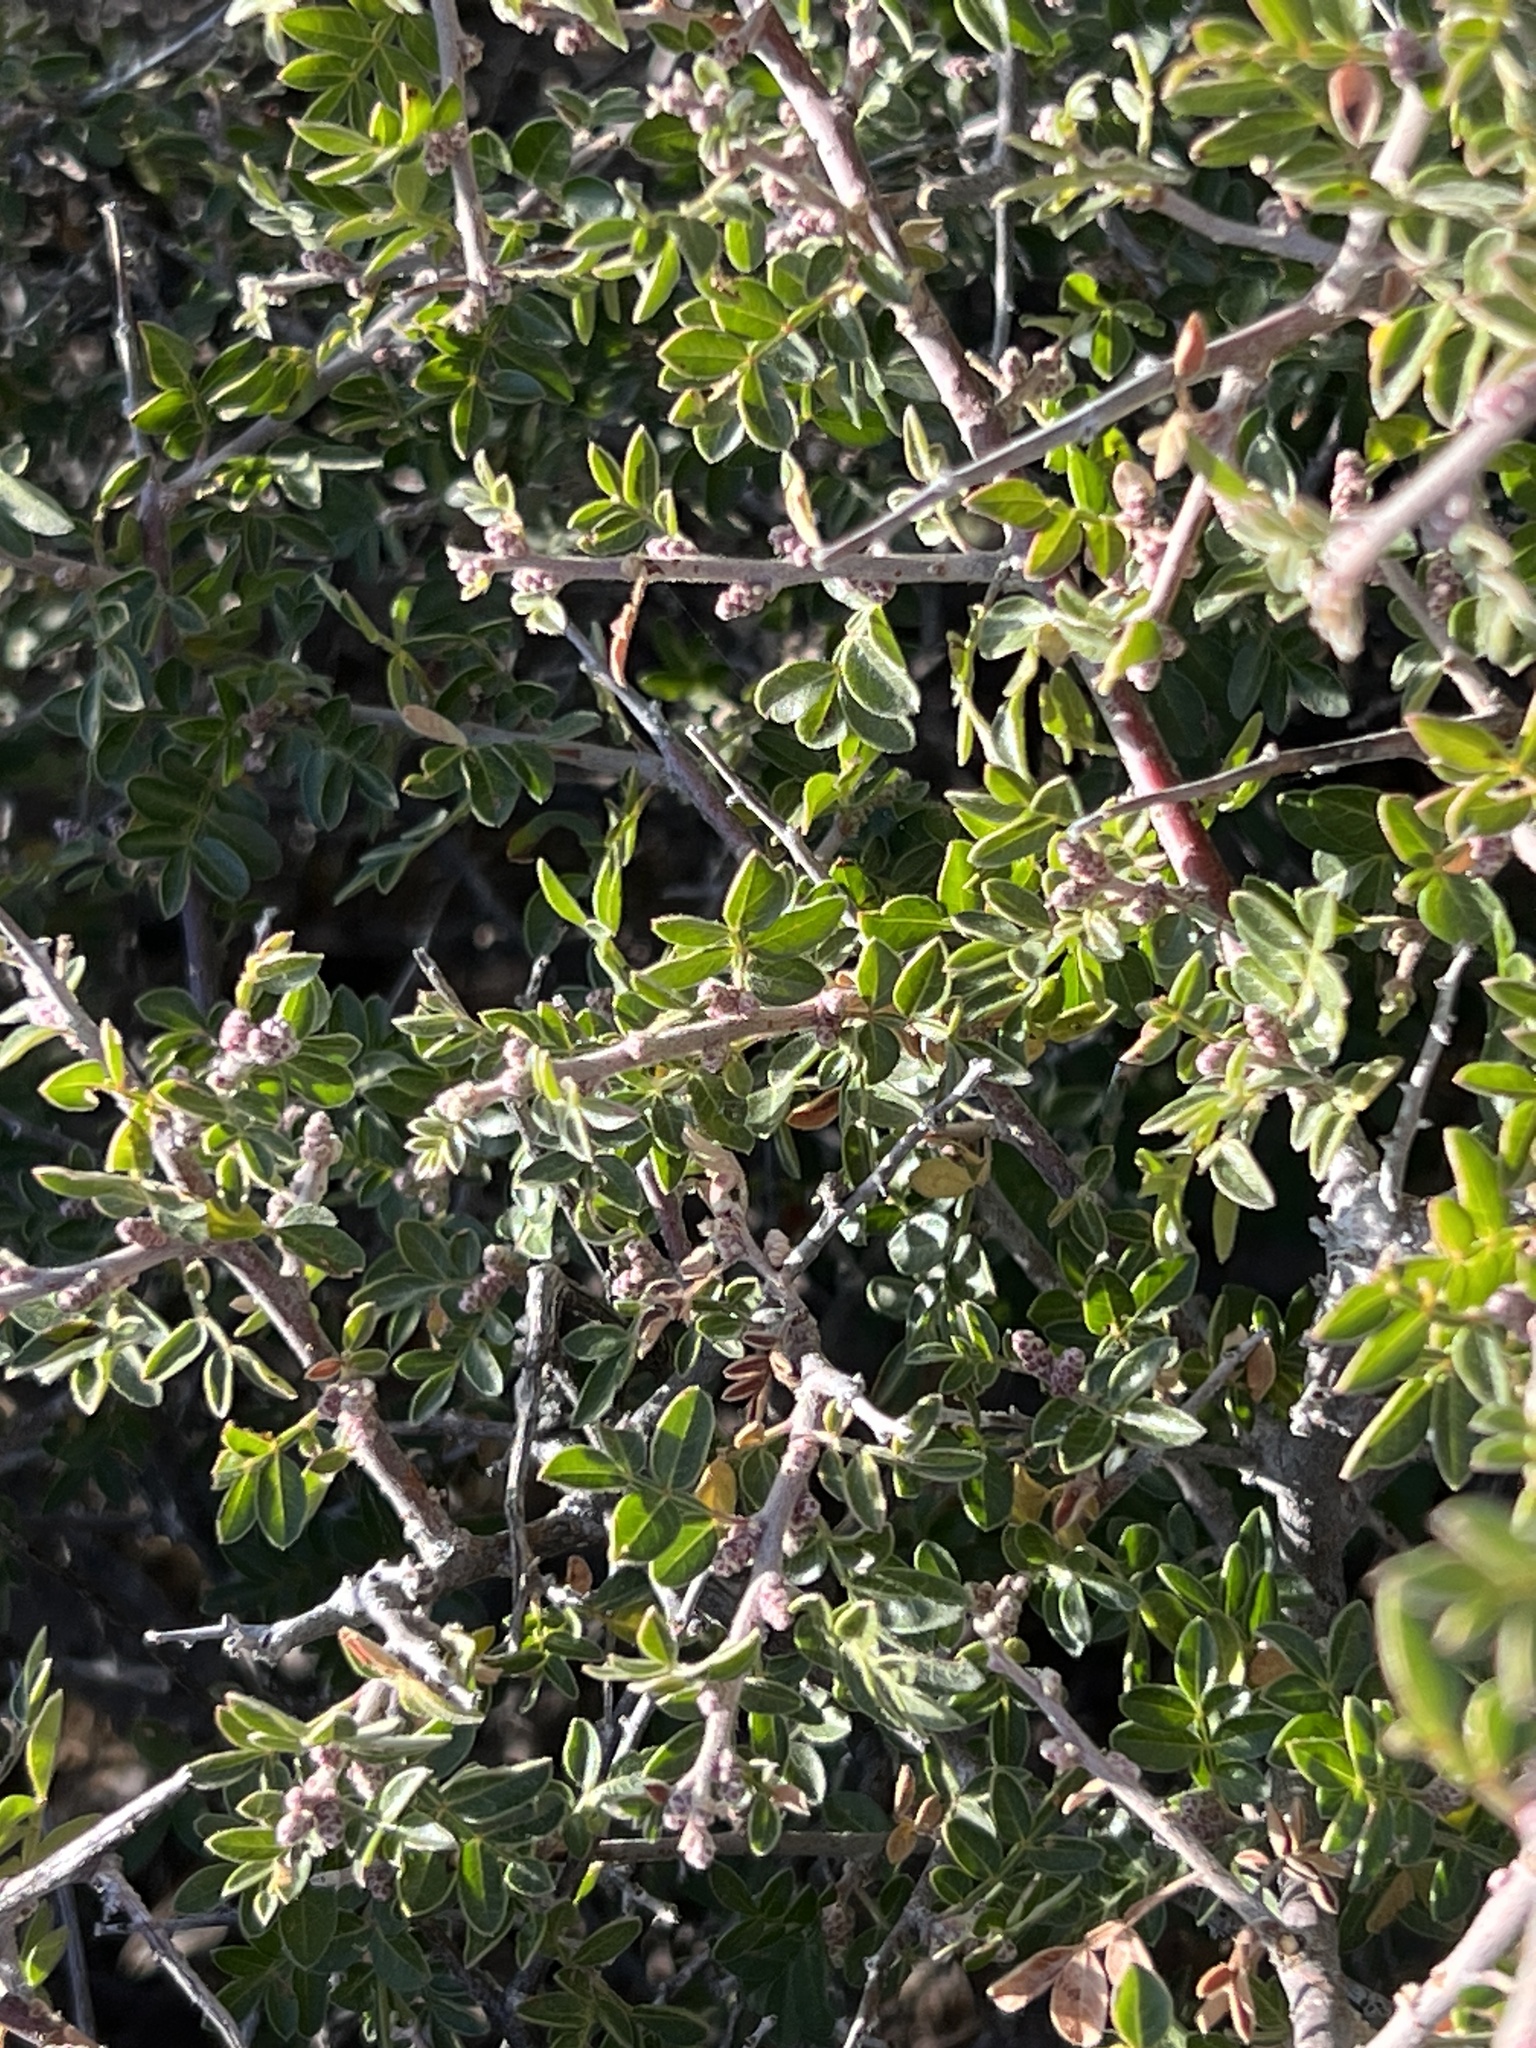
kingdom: Plantae
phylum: Tracheophyta
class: Magnoliopsida
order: Sapindales
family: Anacardiaceae
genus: Rhus
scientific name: Rhus microphylla
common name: Desert sumac
